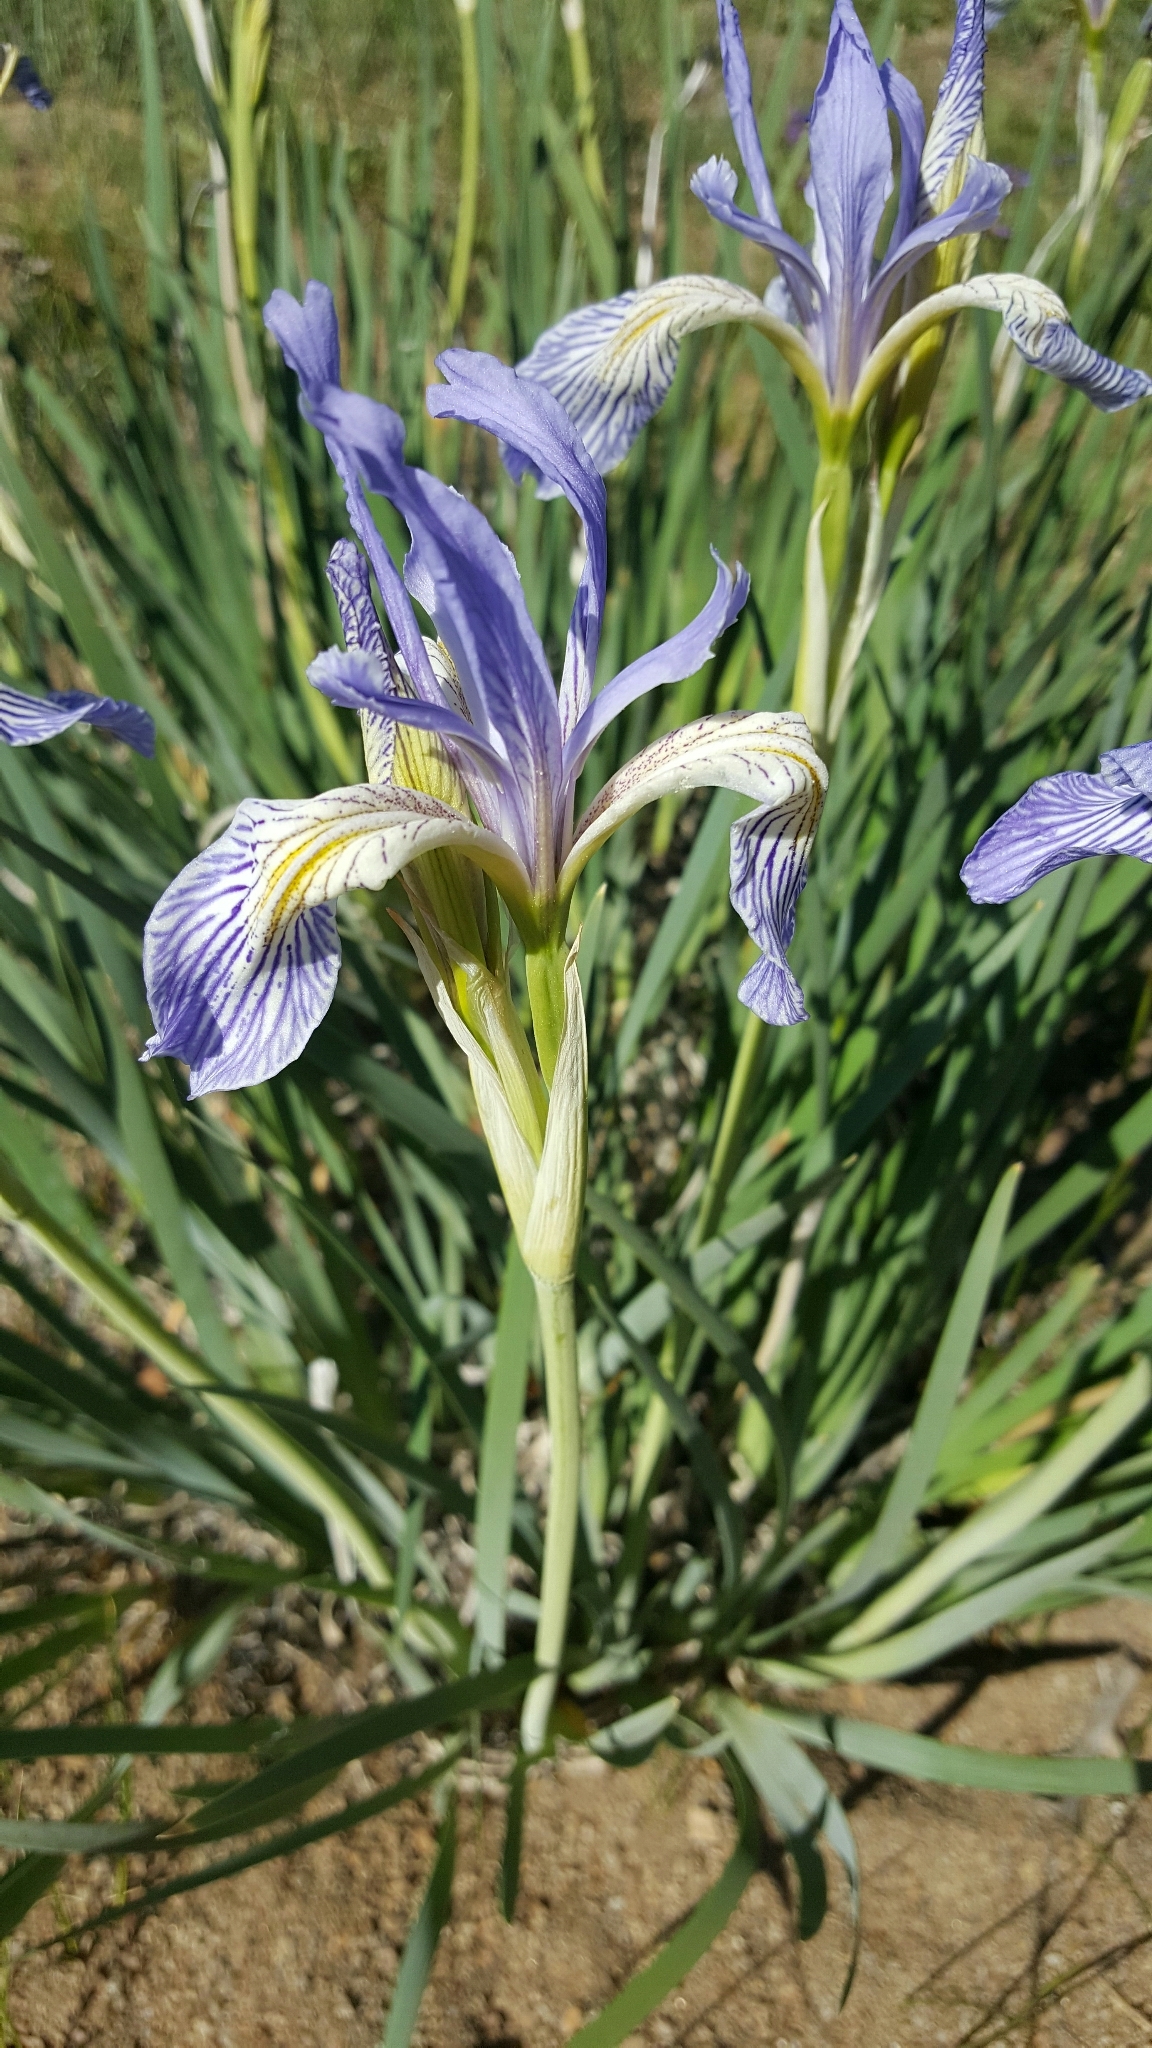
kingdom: Plantae
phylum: Tracheophyta
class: Liliopsida
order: Asparagales
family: Iridaceae
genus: Iris
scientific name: Iris missouriensis
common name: Rocky mountain iris
